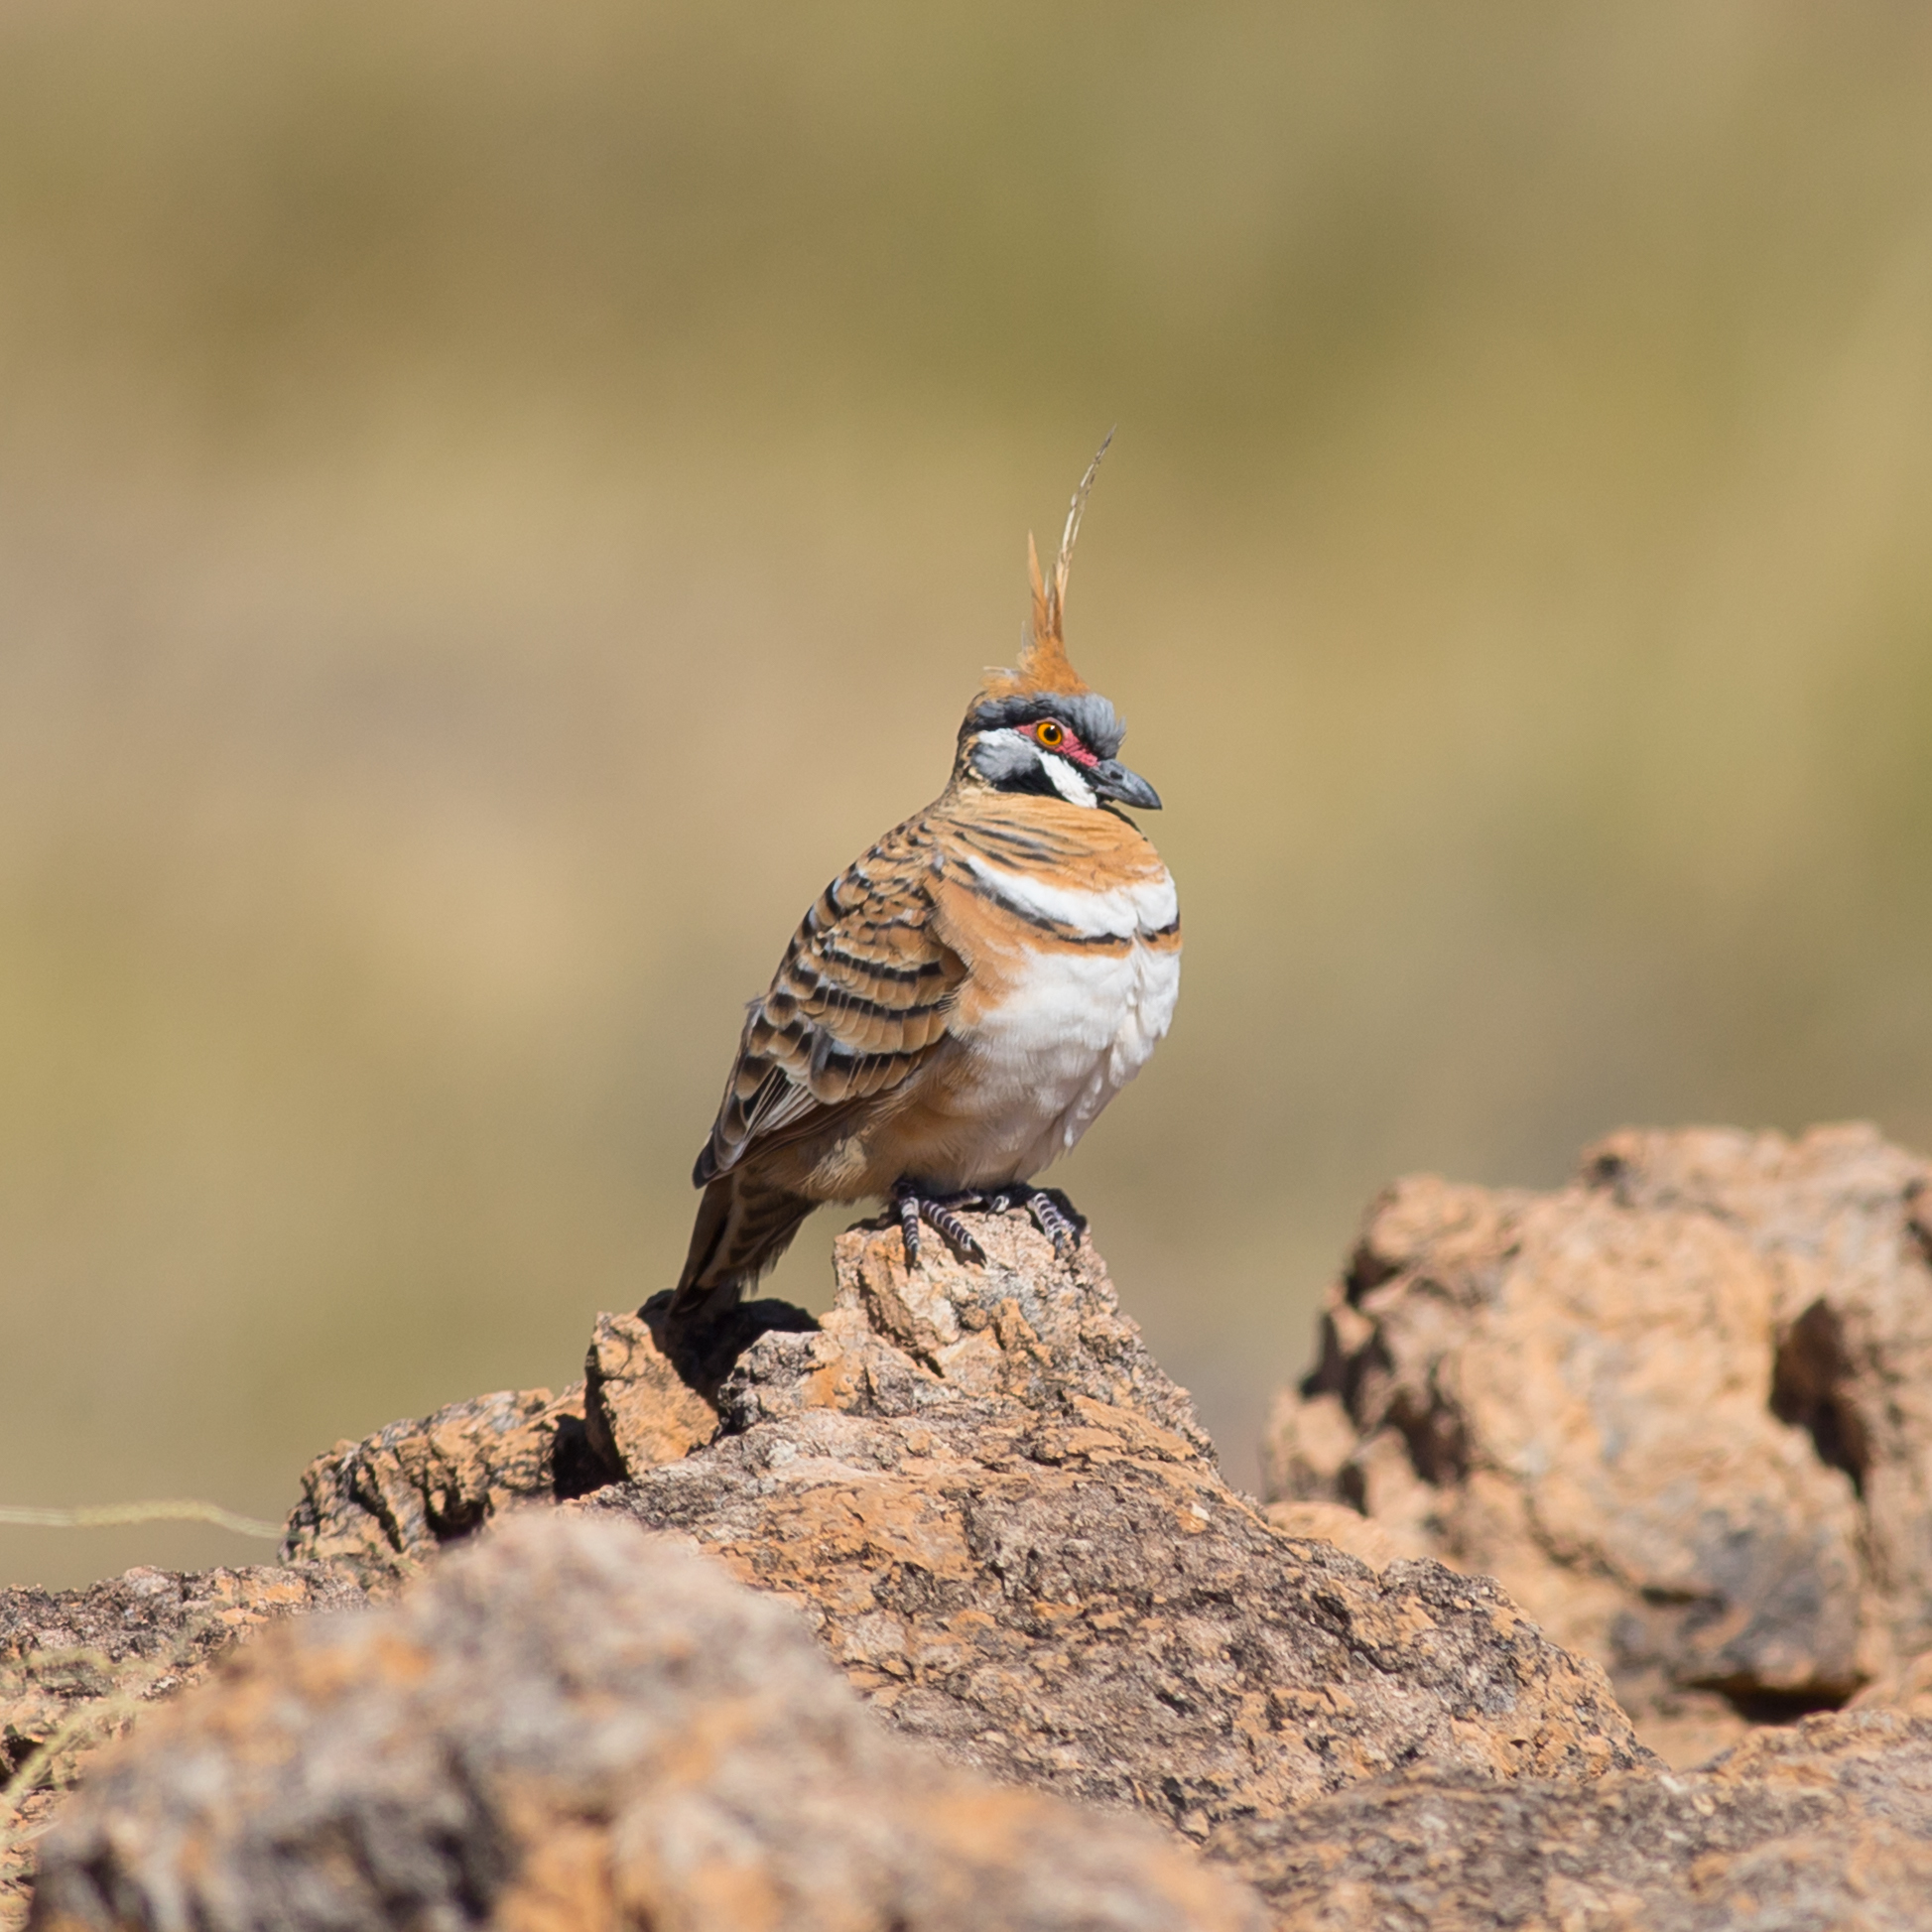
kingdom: Animalia
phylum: Chordata
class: Aves
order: Columbiformes
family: Columbidae
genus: Geophaps
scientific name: Geophaps plumifera
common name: Spinifex pigeon
